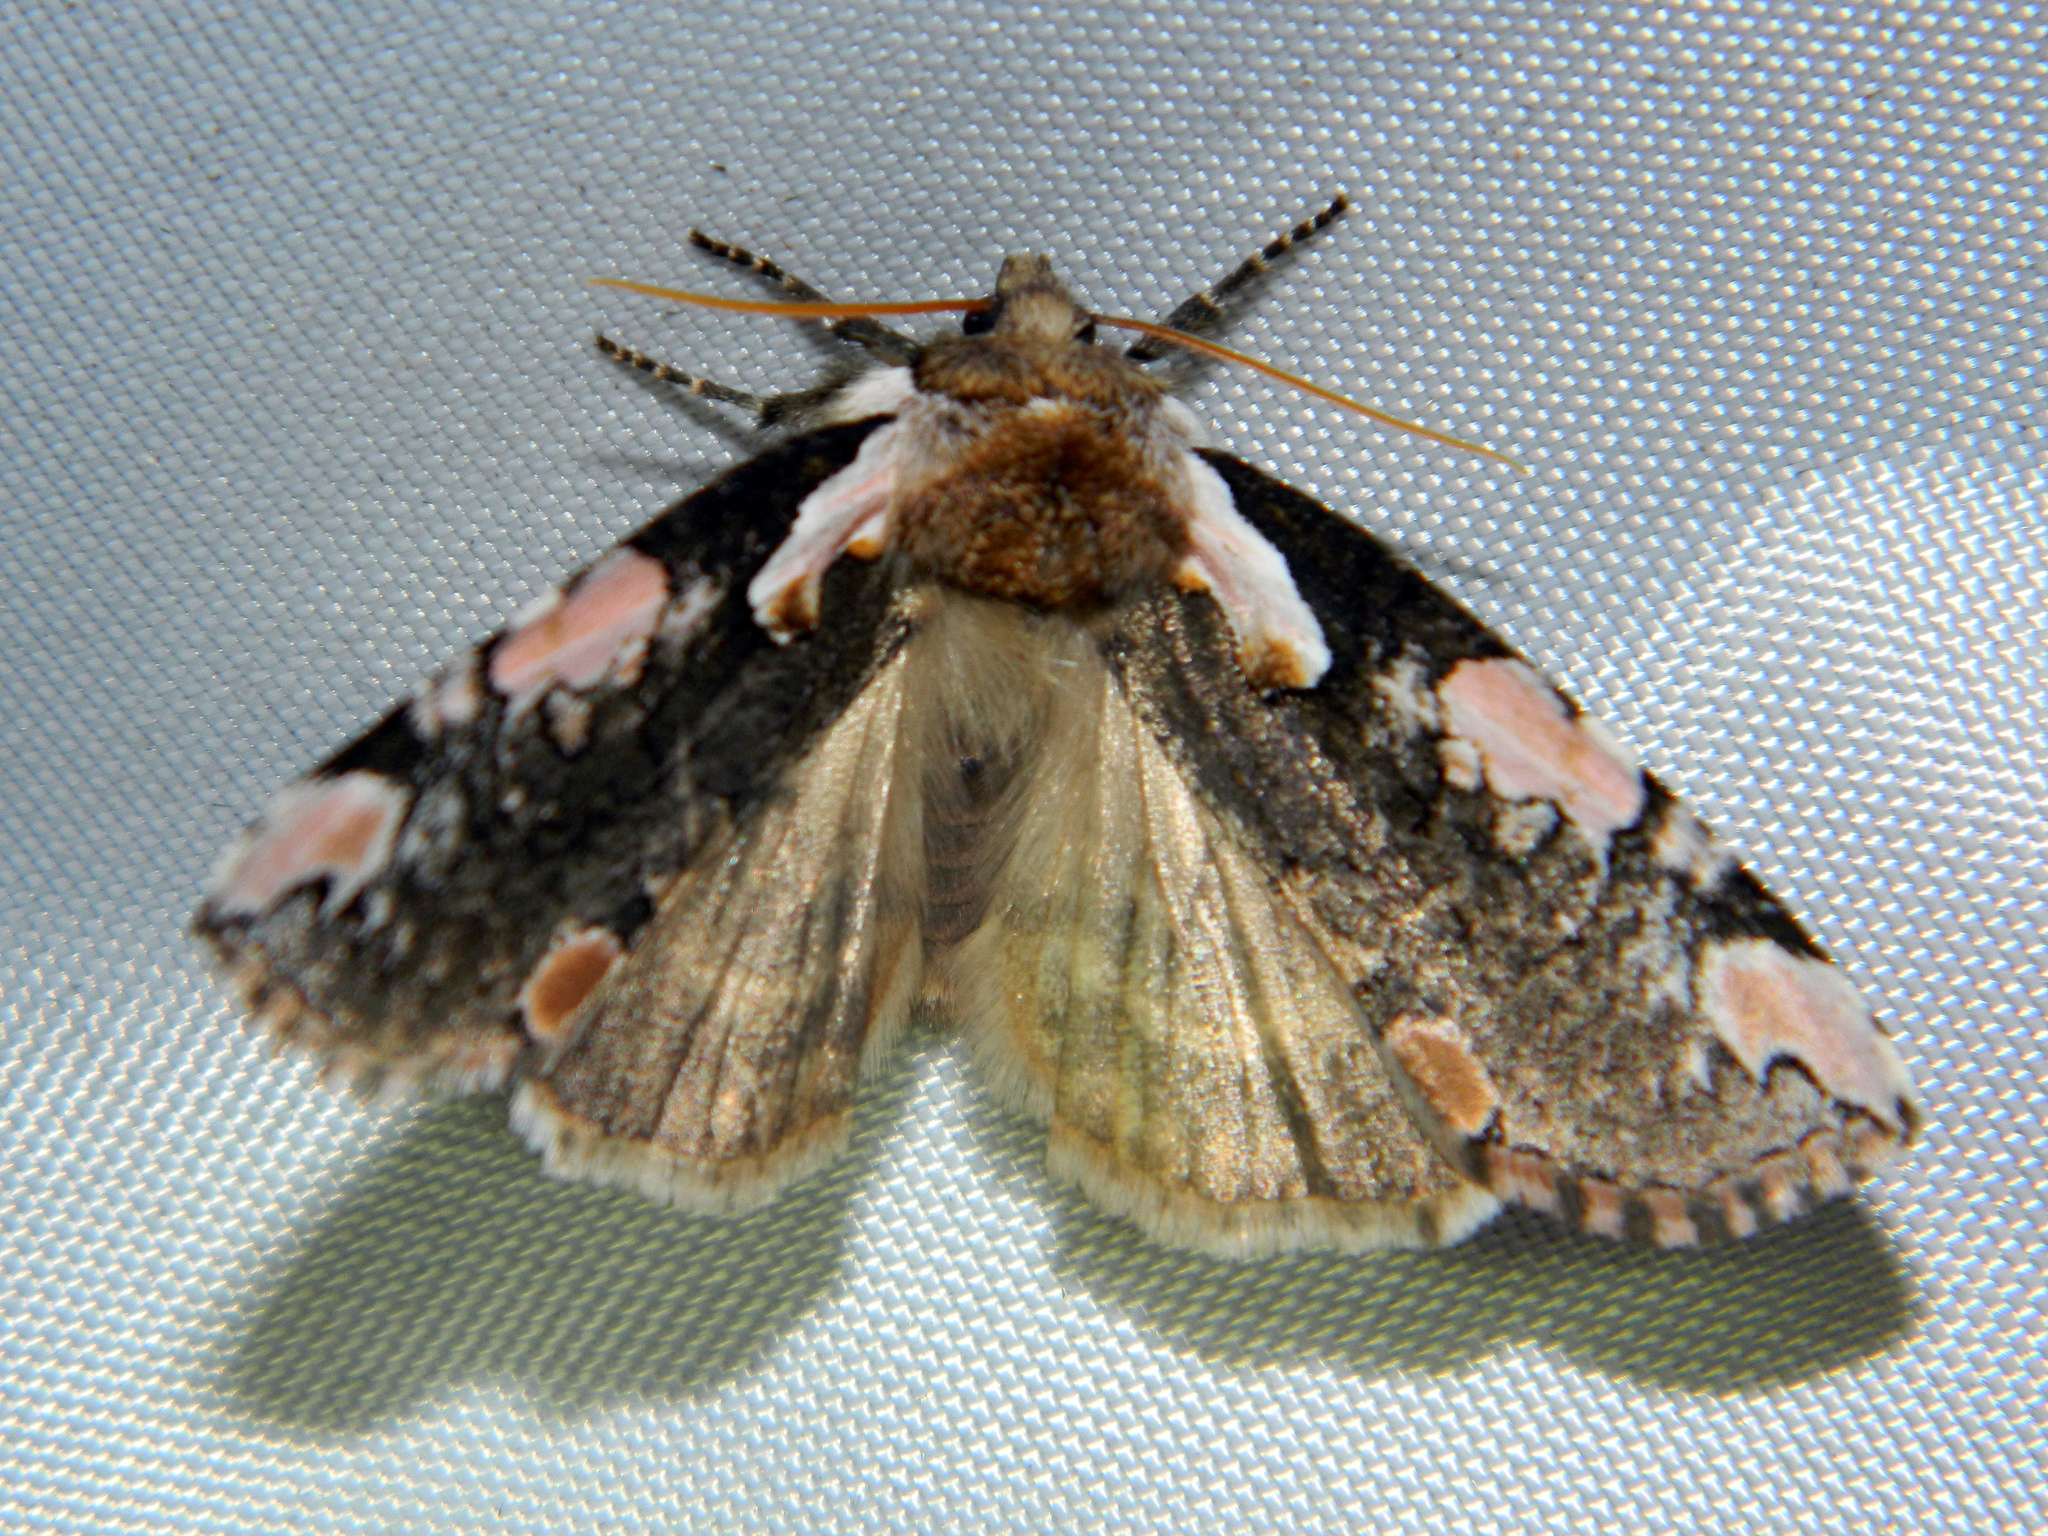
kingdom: Animalia
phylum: Arthropoda
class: Insecta
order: Lepidoptera
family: Drepanidae
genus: Euthyatira
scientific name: Euthyatira pudens
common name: Dogwood thyatirid moth
